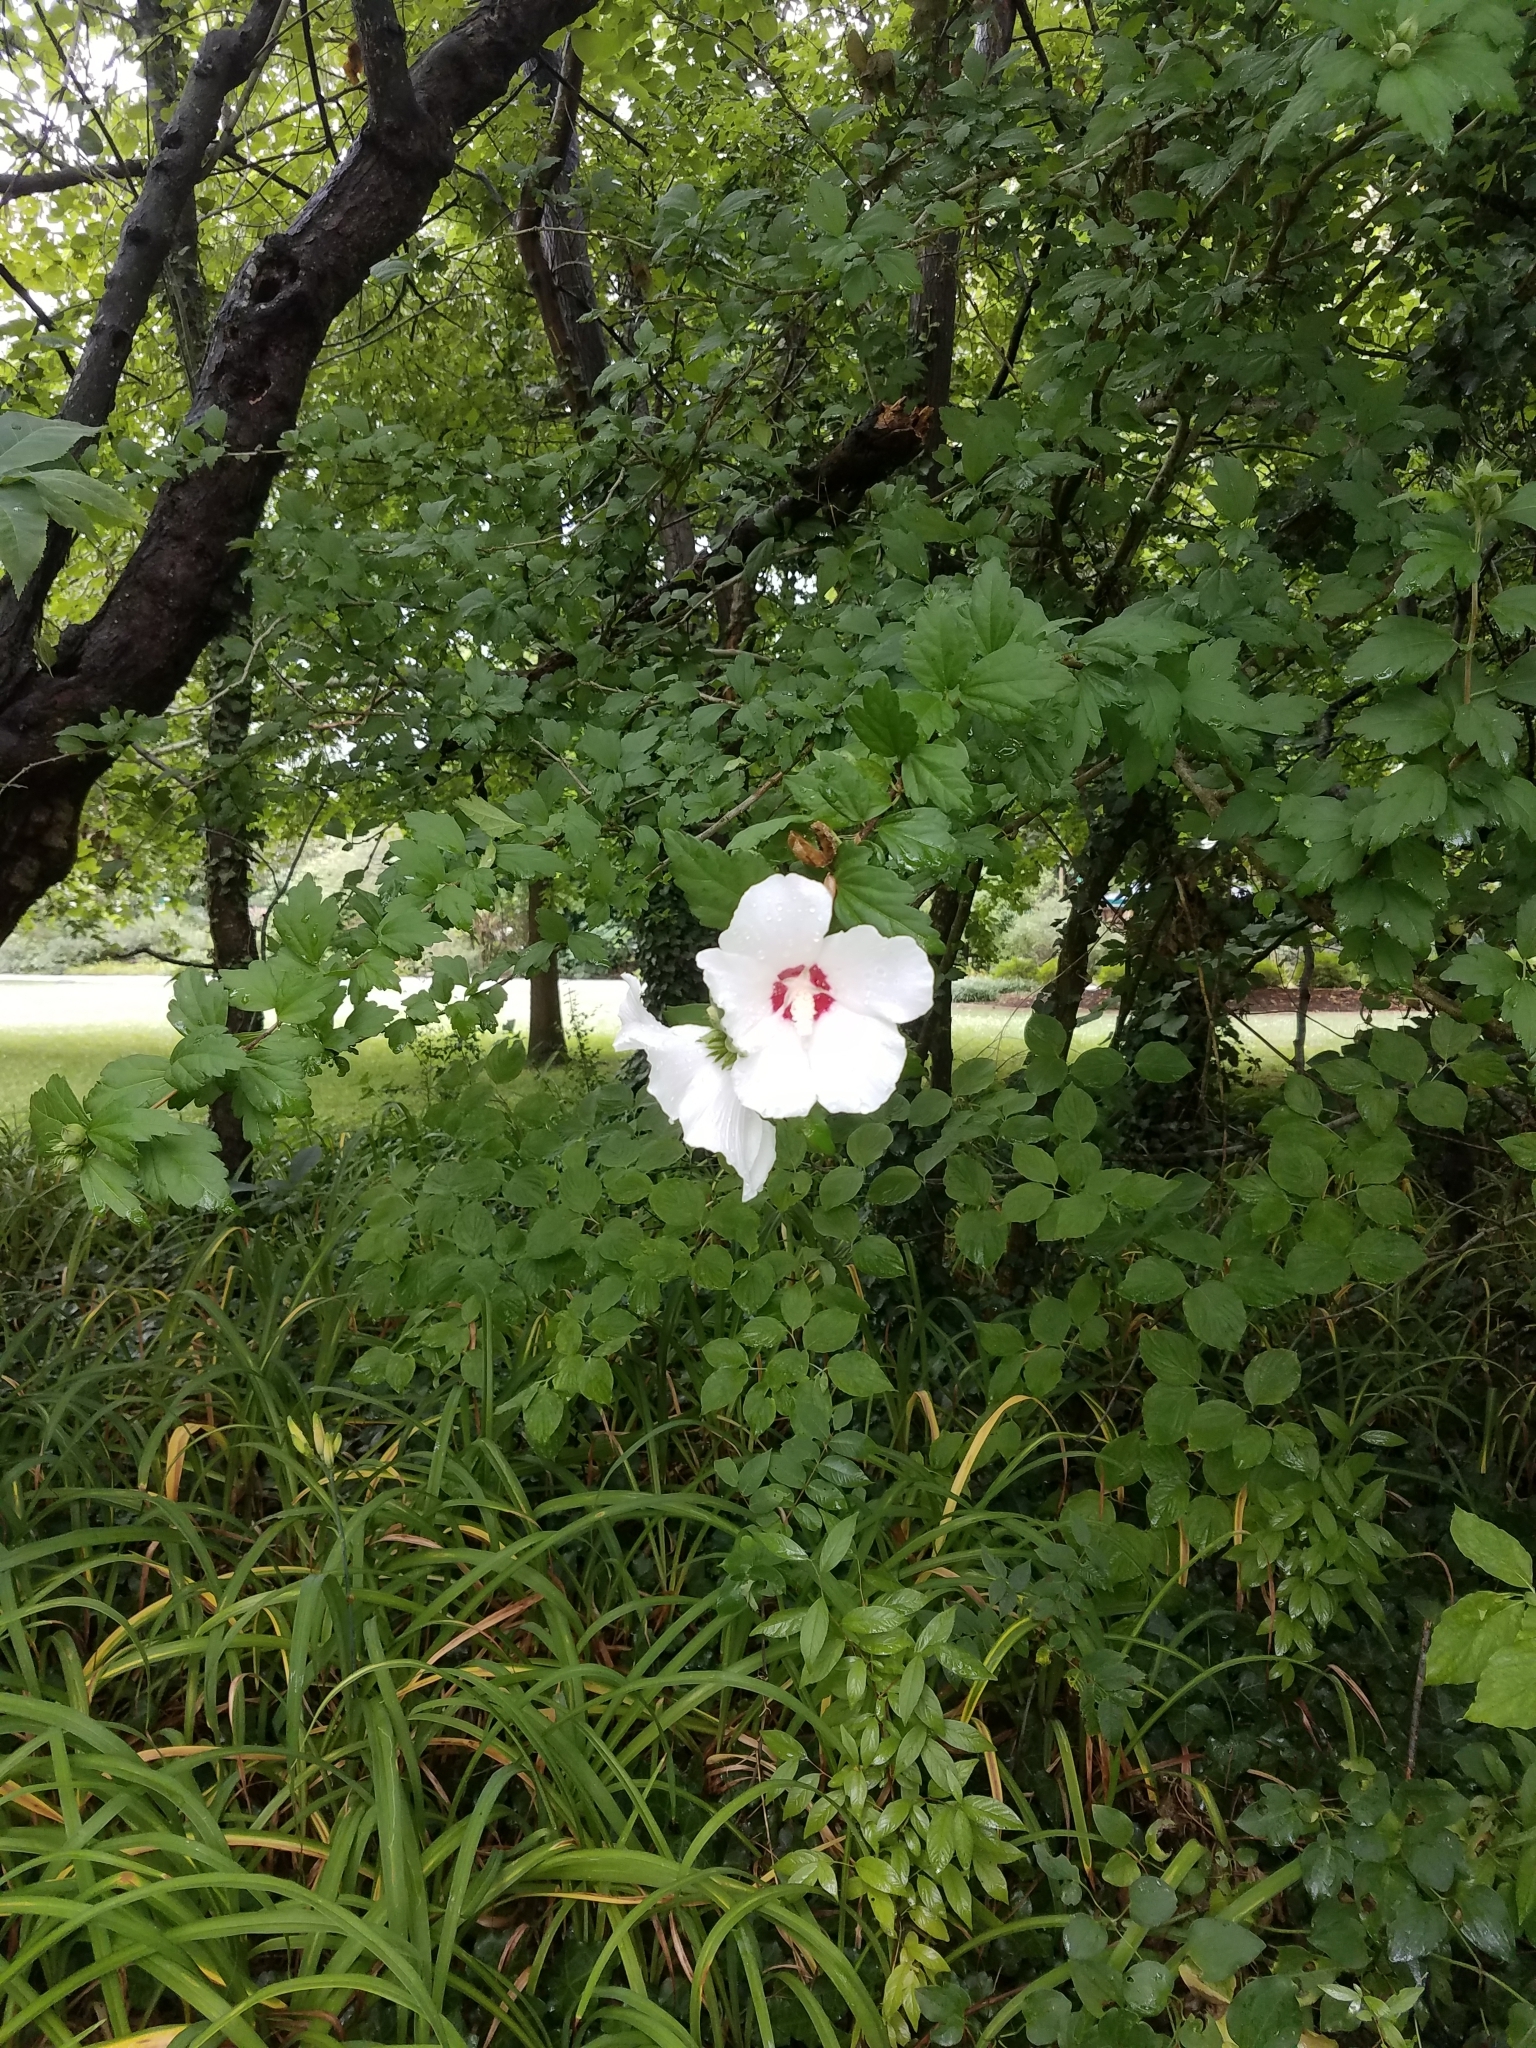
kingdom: Plantae
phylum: Tracheophyta
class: Magnoliopsida
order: Malvales
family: Malvaceae
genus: Hibiscus
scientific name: Hibiscus syriacus
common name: Syrian ketmia
